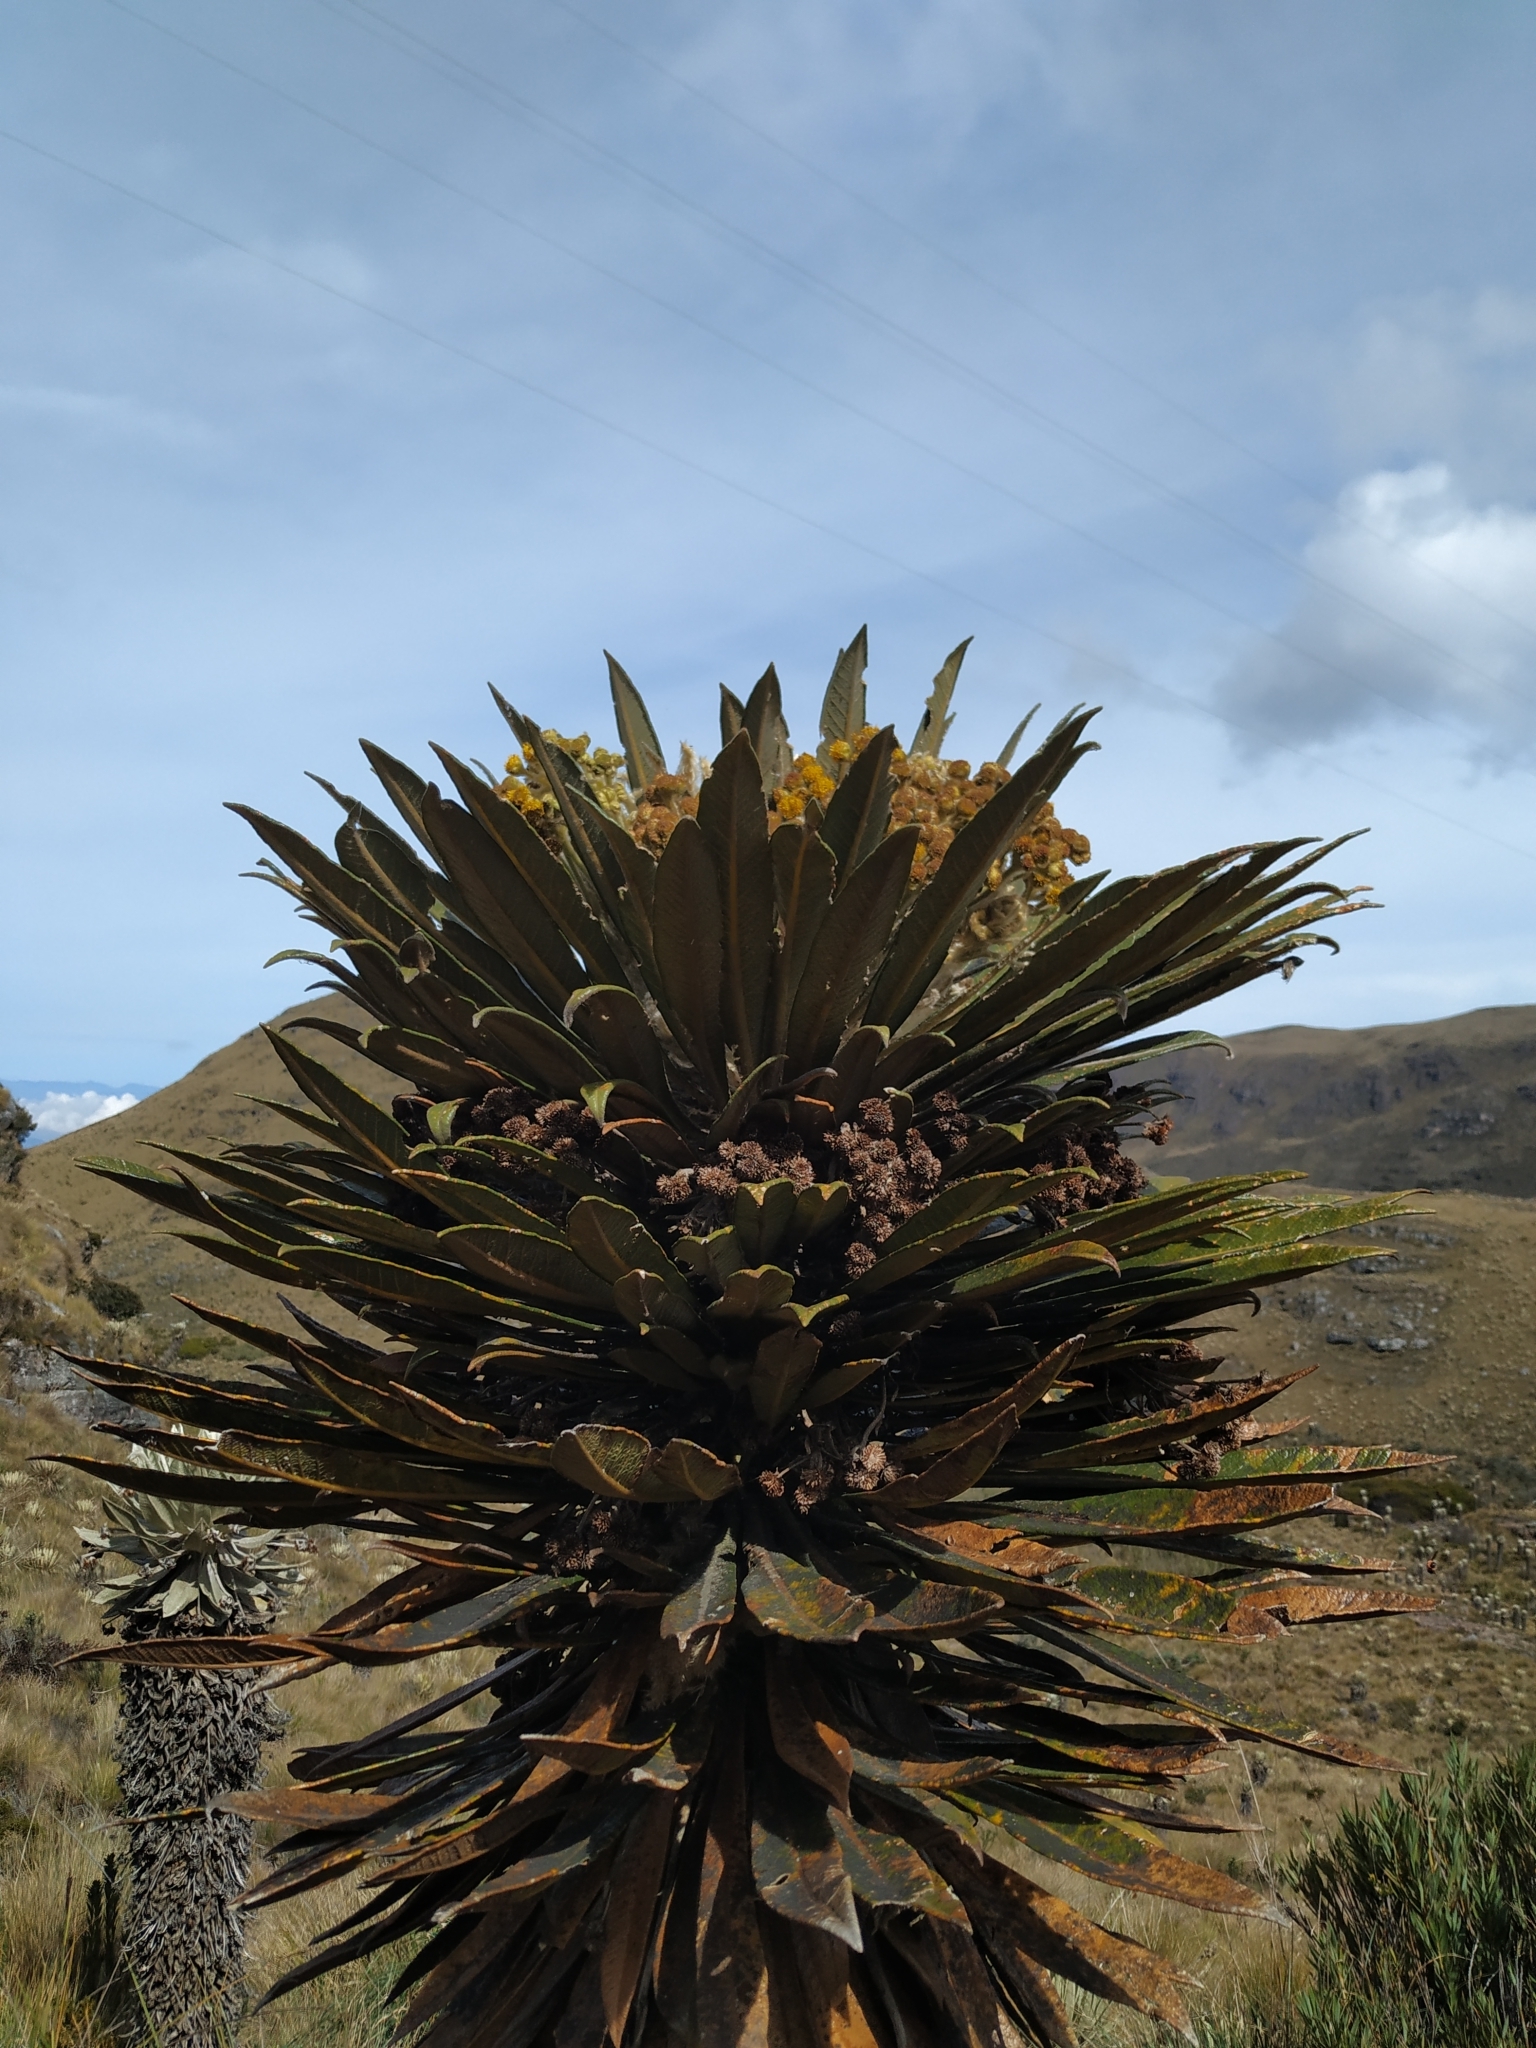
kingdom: Plantae
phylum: Tracheophyta
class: Magnoliopsida
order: Asterales
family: Asteraceae
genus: Espeletia
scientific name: Espeletia guacharaca
